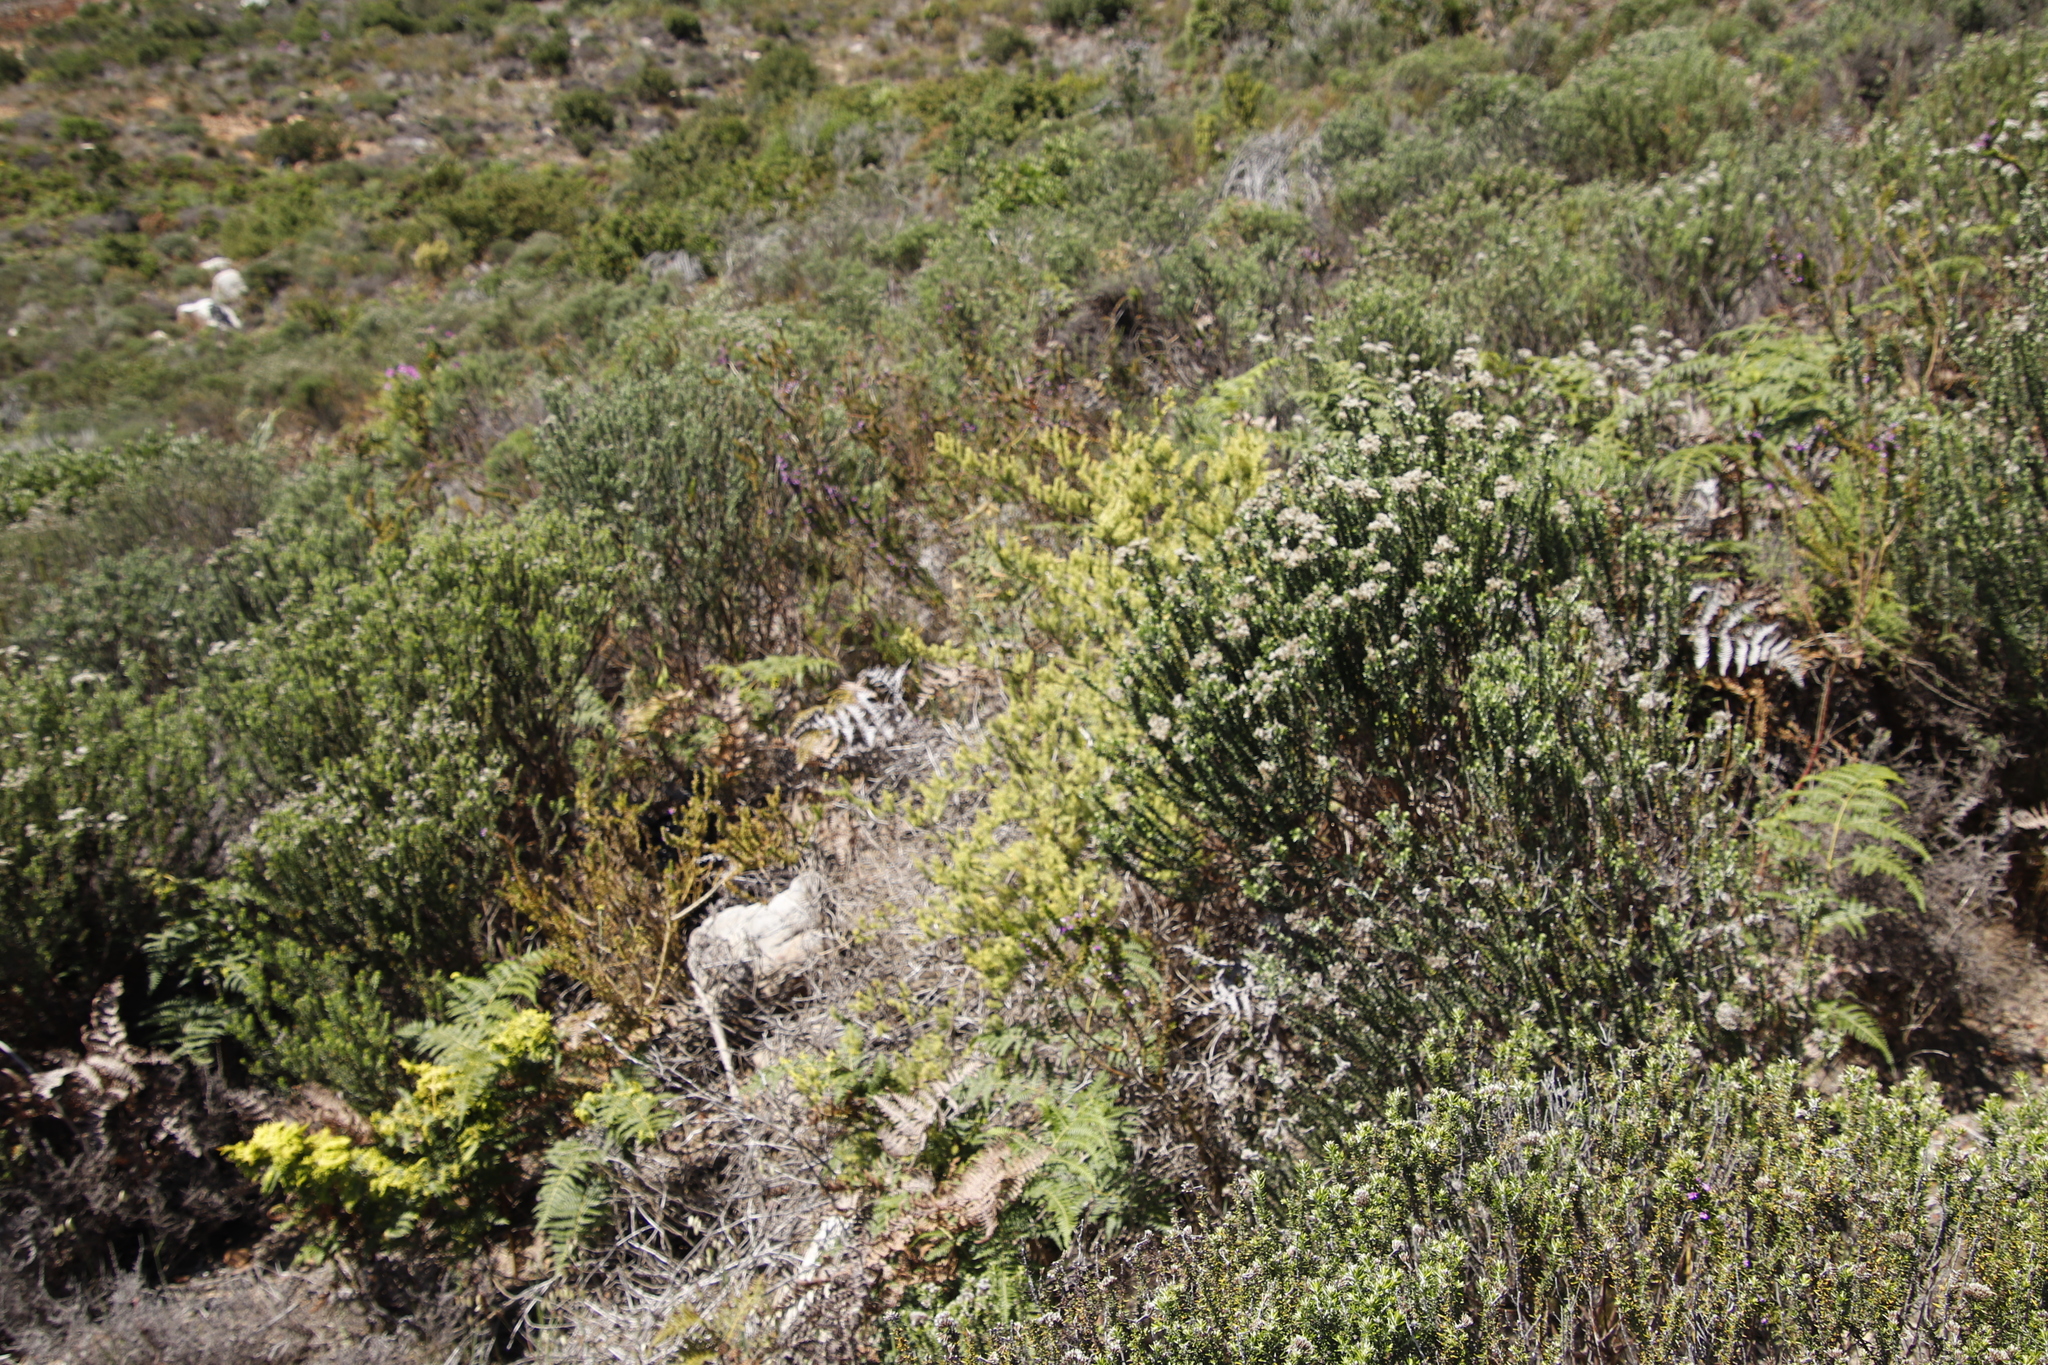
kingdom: Plantae
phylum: Tracheophyta
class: Liliopsida
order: Asparagales
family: Asparagaceae
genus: Asparagus
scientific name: Asparagus rubicundus
